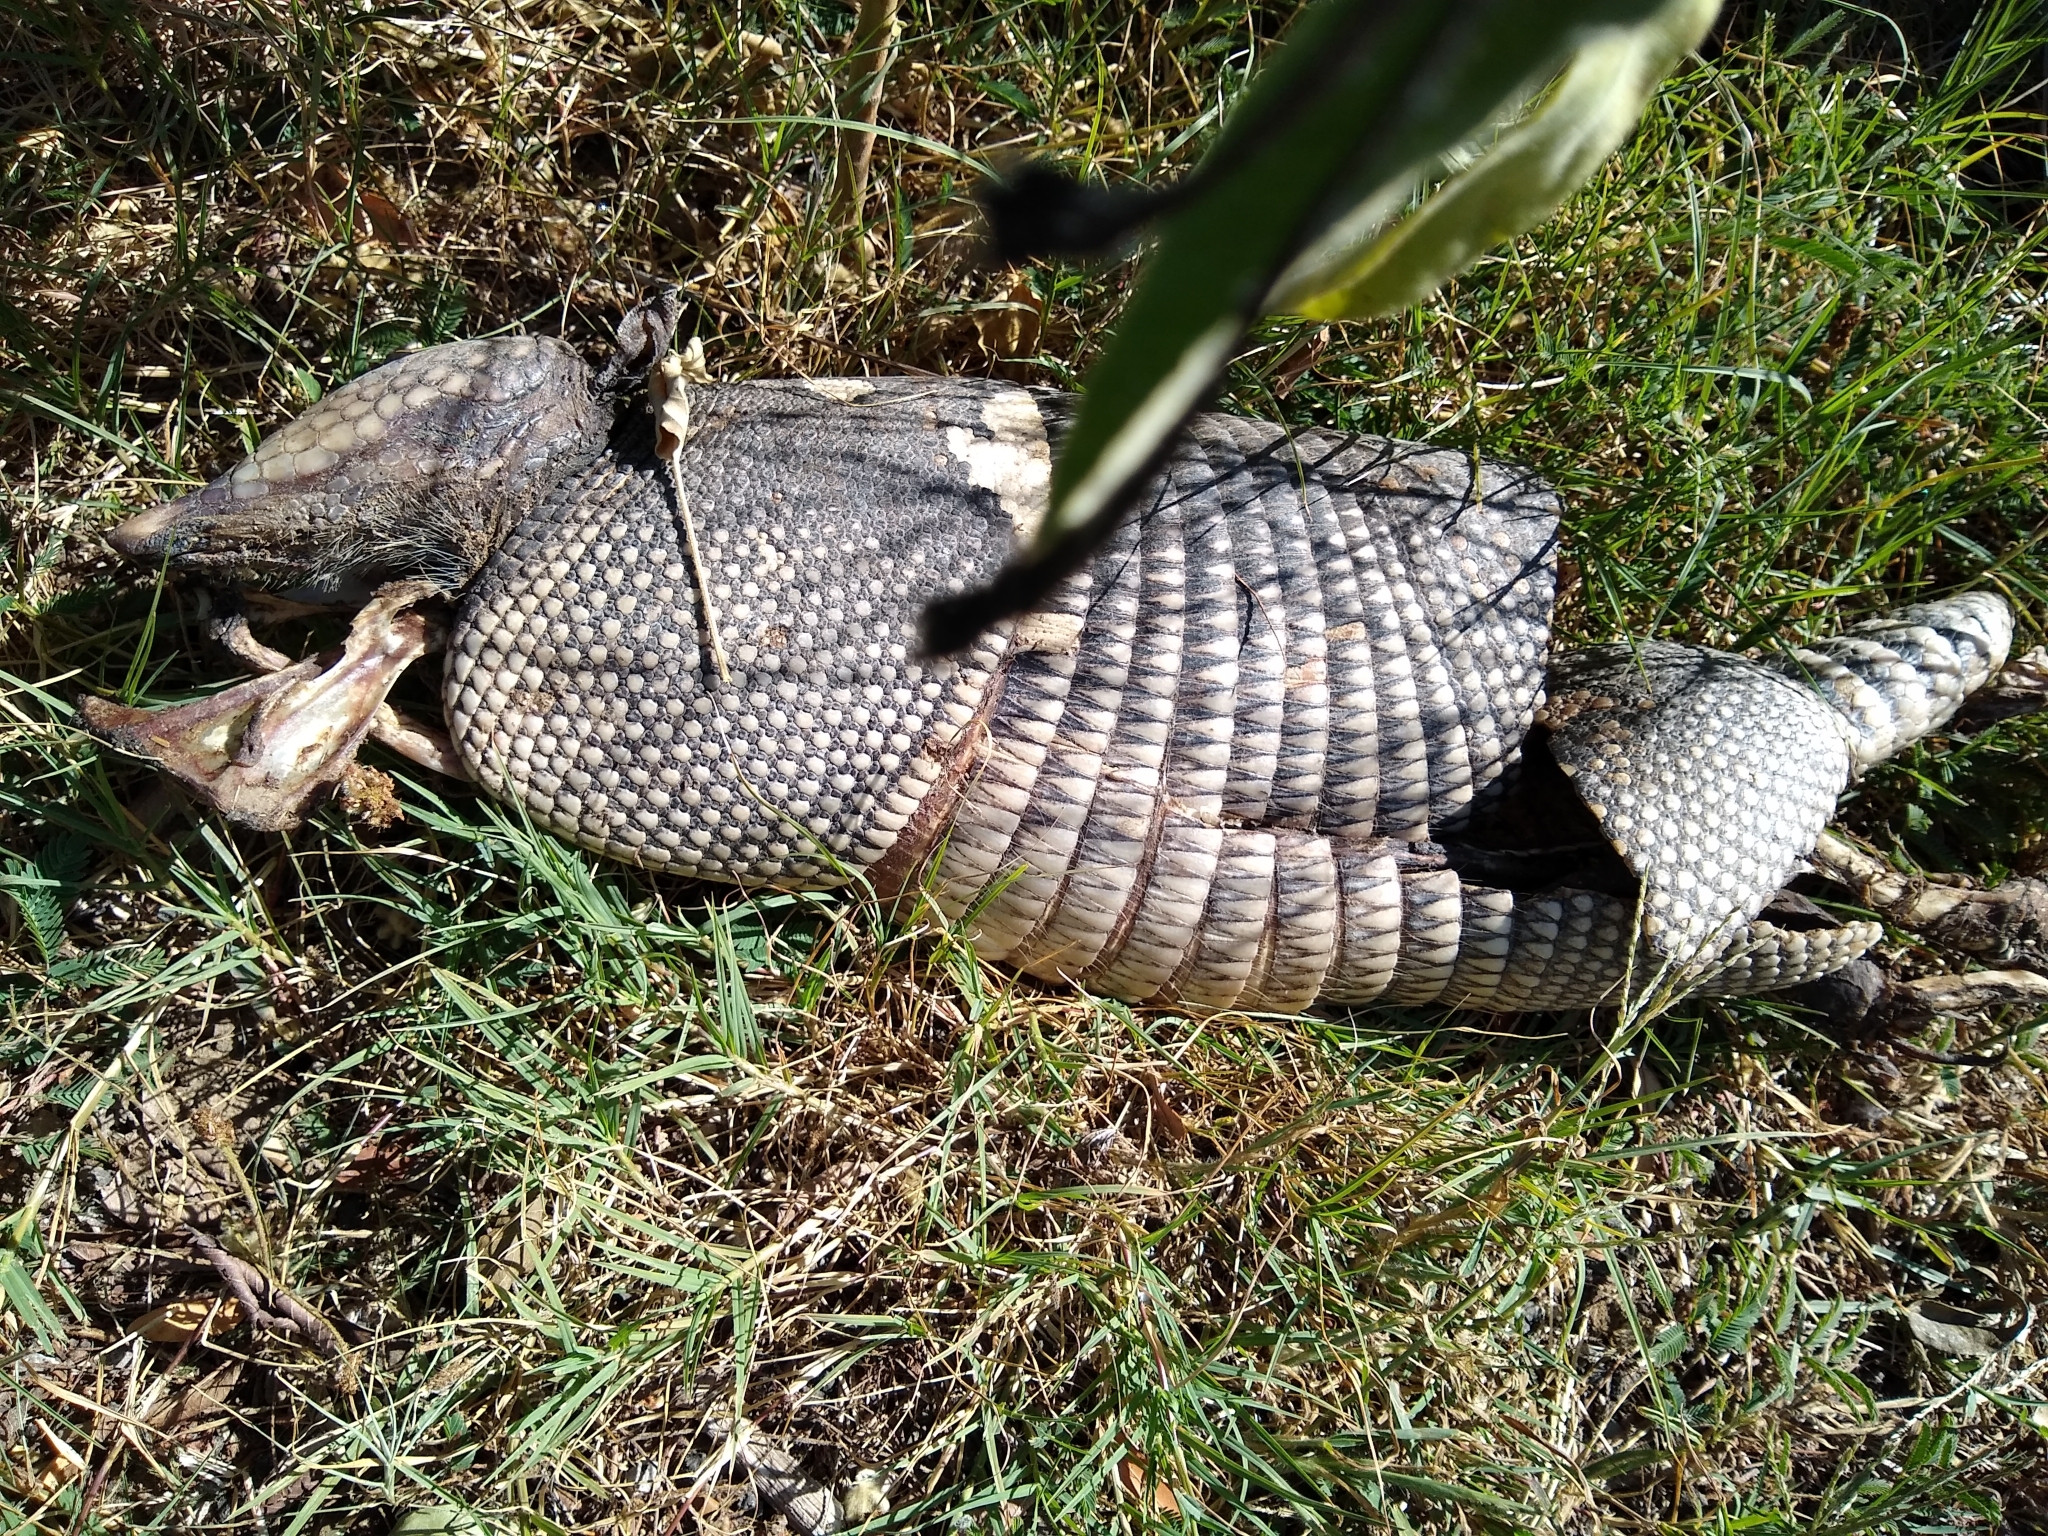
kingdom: Animalia
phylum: Chordata
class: Mammalia
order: Cingulata
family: Dasypodidae
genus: Dasypus
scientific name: Dasypus novemcinctus
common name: Nine-banded armadillo
